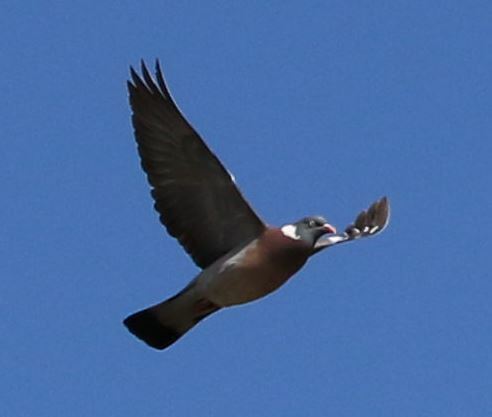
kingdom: Animalia
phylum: Chordata
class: Aves
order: Columbiformes
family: Columbidae
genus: Columba
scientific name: Columba palumbus
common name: Common wood pigeon
